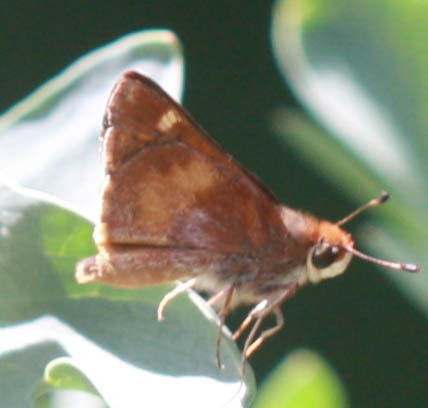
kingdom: Animalia
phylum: Arthropoda
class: Insecta
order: Lepidoptera
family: Hesperiidae
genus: Lon
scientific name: Lon melane
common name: Umber skipper
